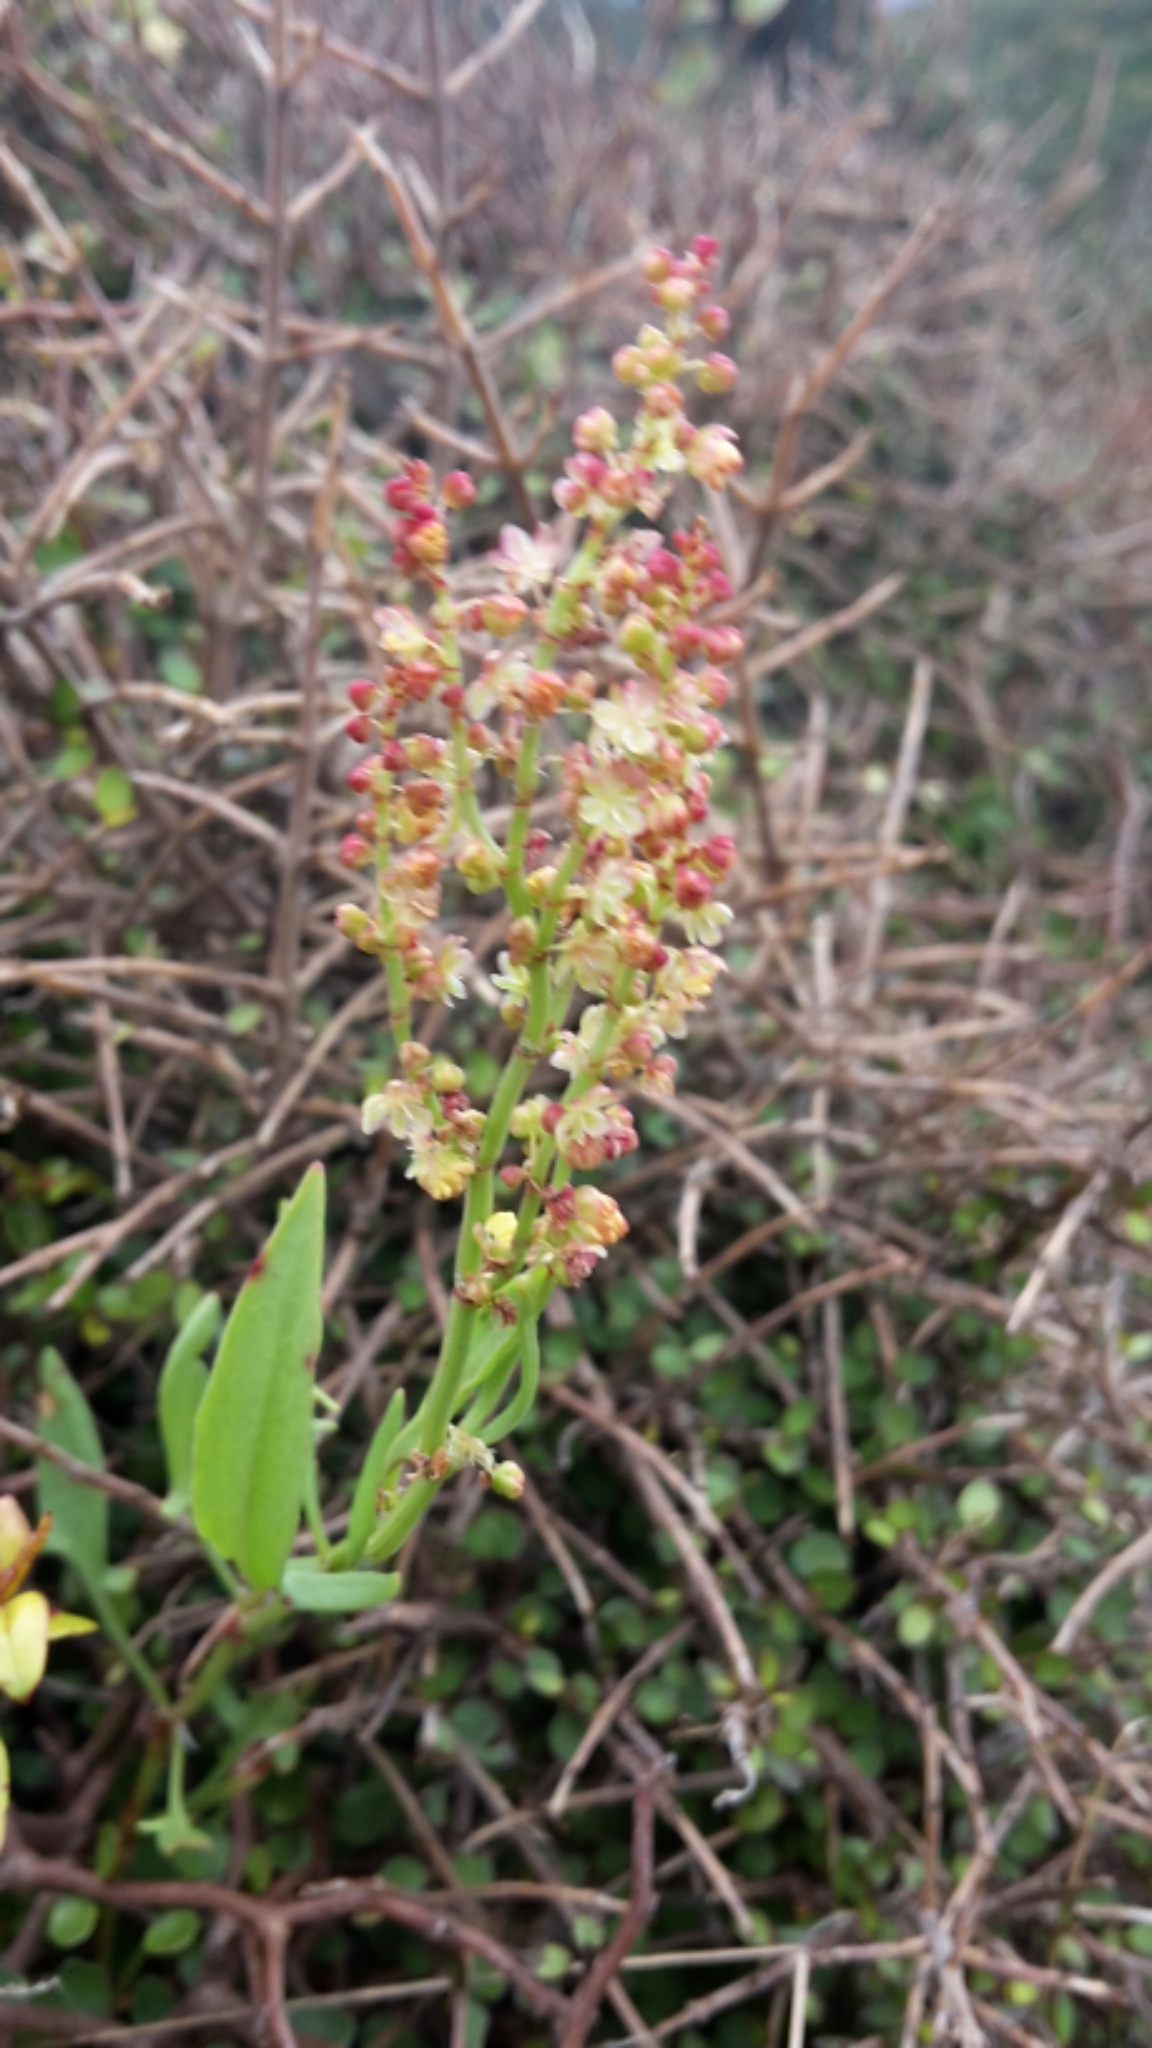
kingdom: Plantae
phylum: Tracheophyta
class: Magnoliopsida
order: Caryophyllales
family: Polygonaceae
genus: Rumex
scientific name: Rumex acetosella
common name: Common sheep sorrel
